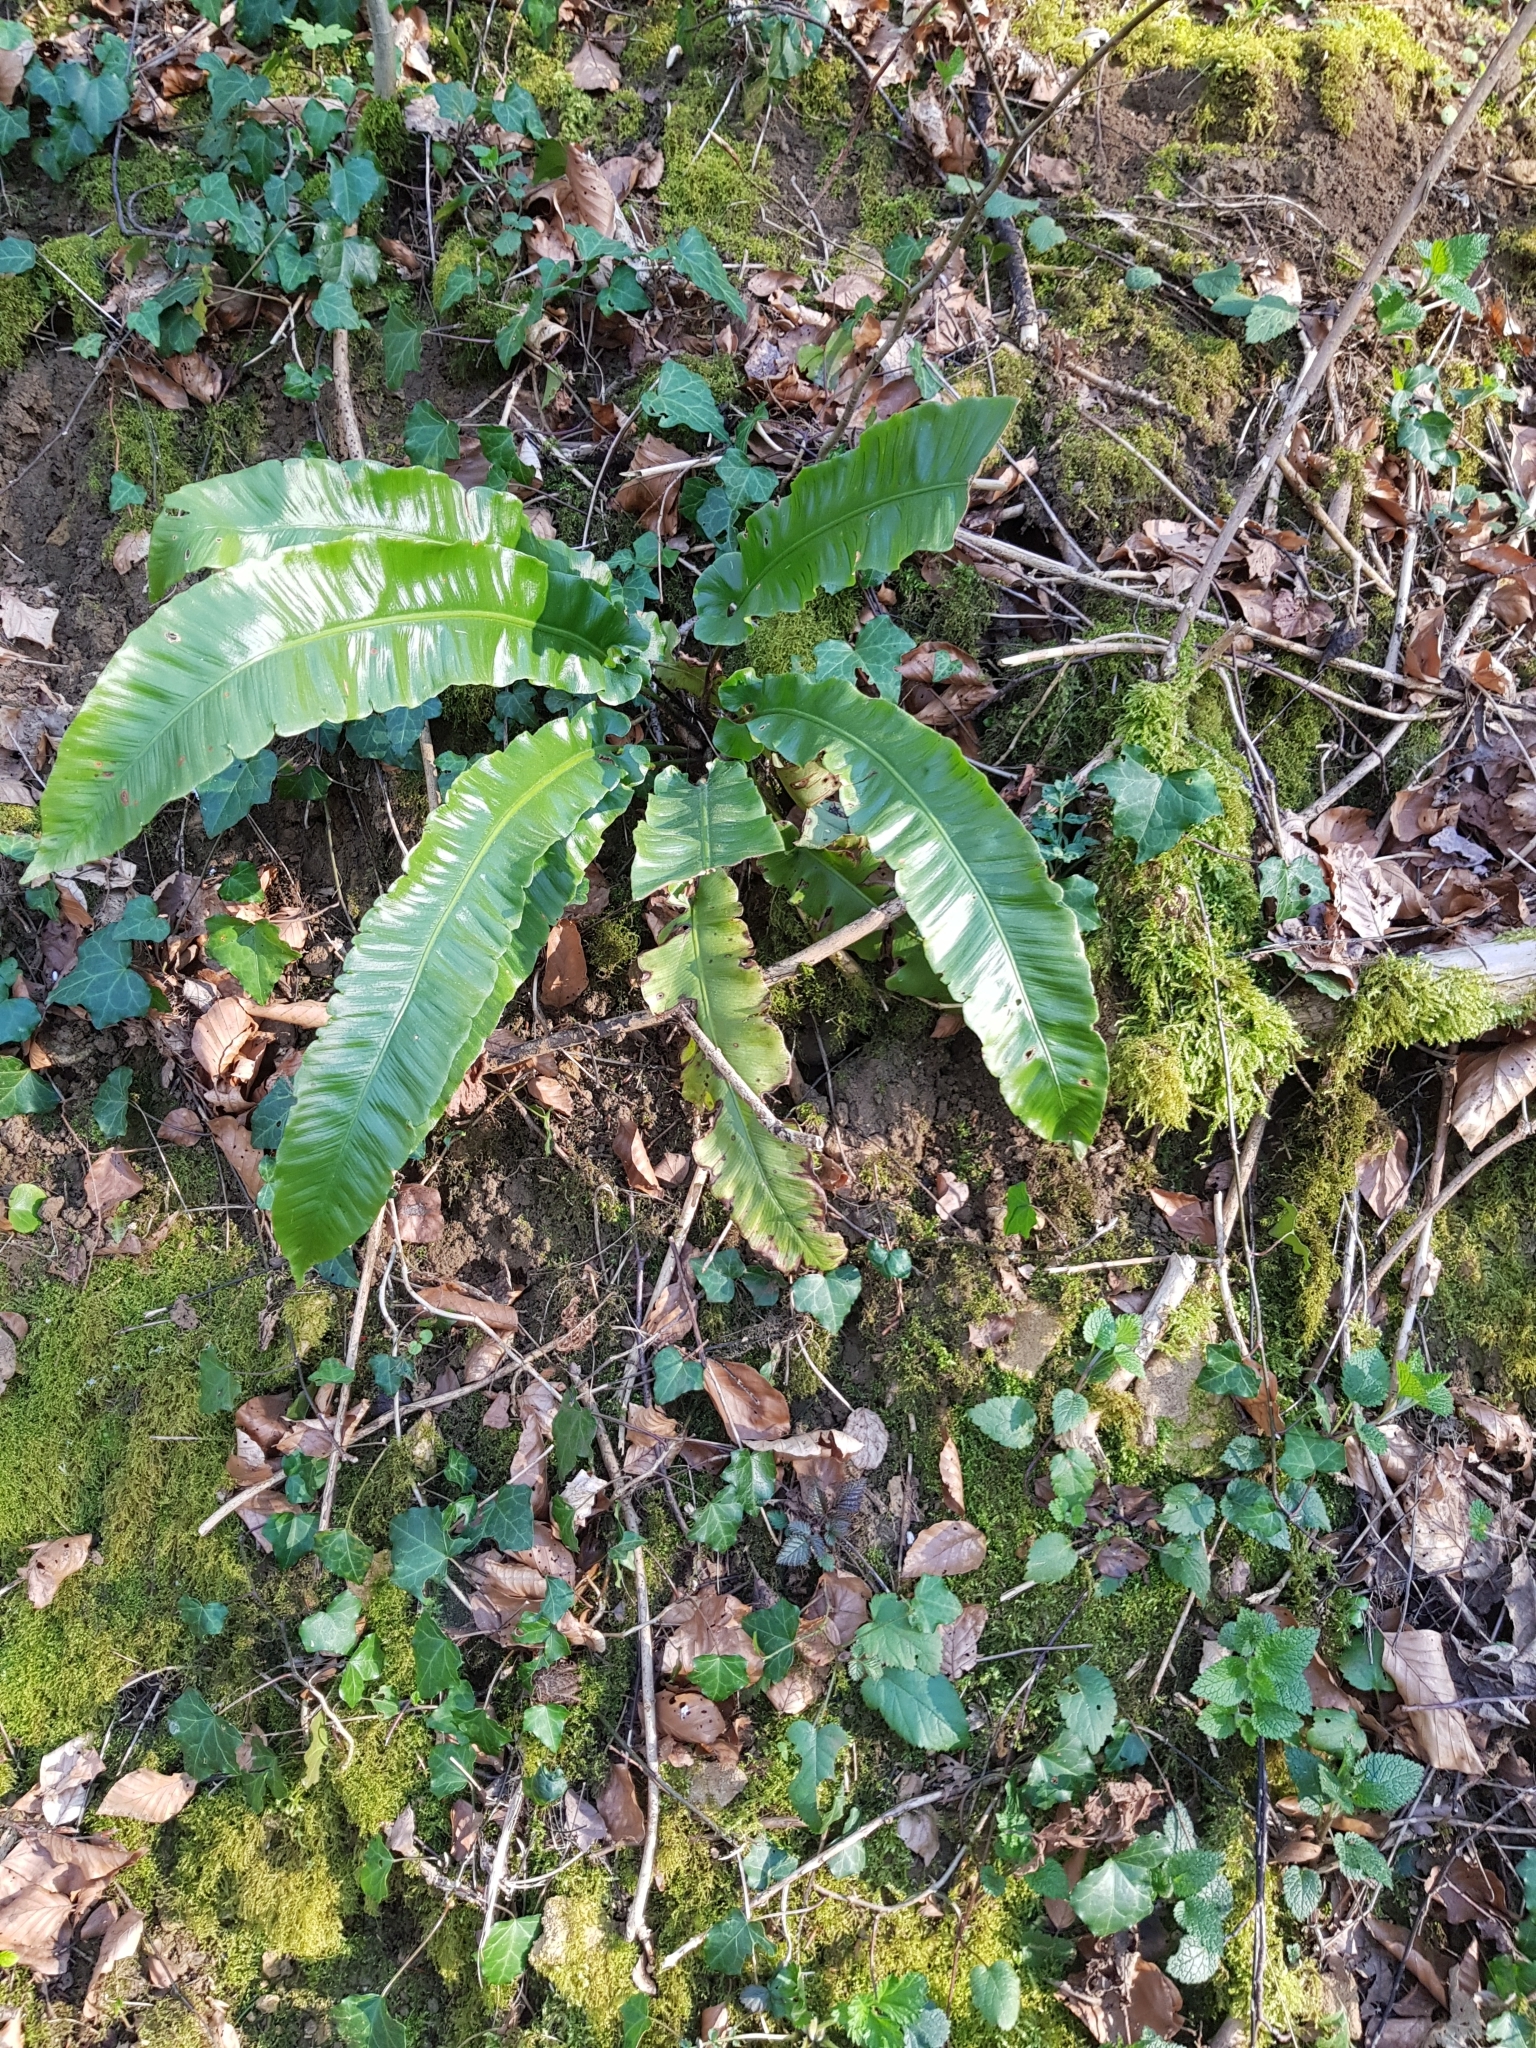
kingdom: Plantae
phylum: Tracheophyta
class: Polypodiopsida
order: Polypodiales
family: Aspleniaceae
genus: Asplenium
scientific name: Asplenium scolopendrium
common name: Hart's-tongue fern
